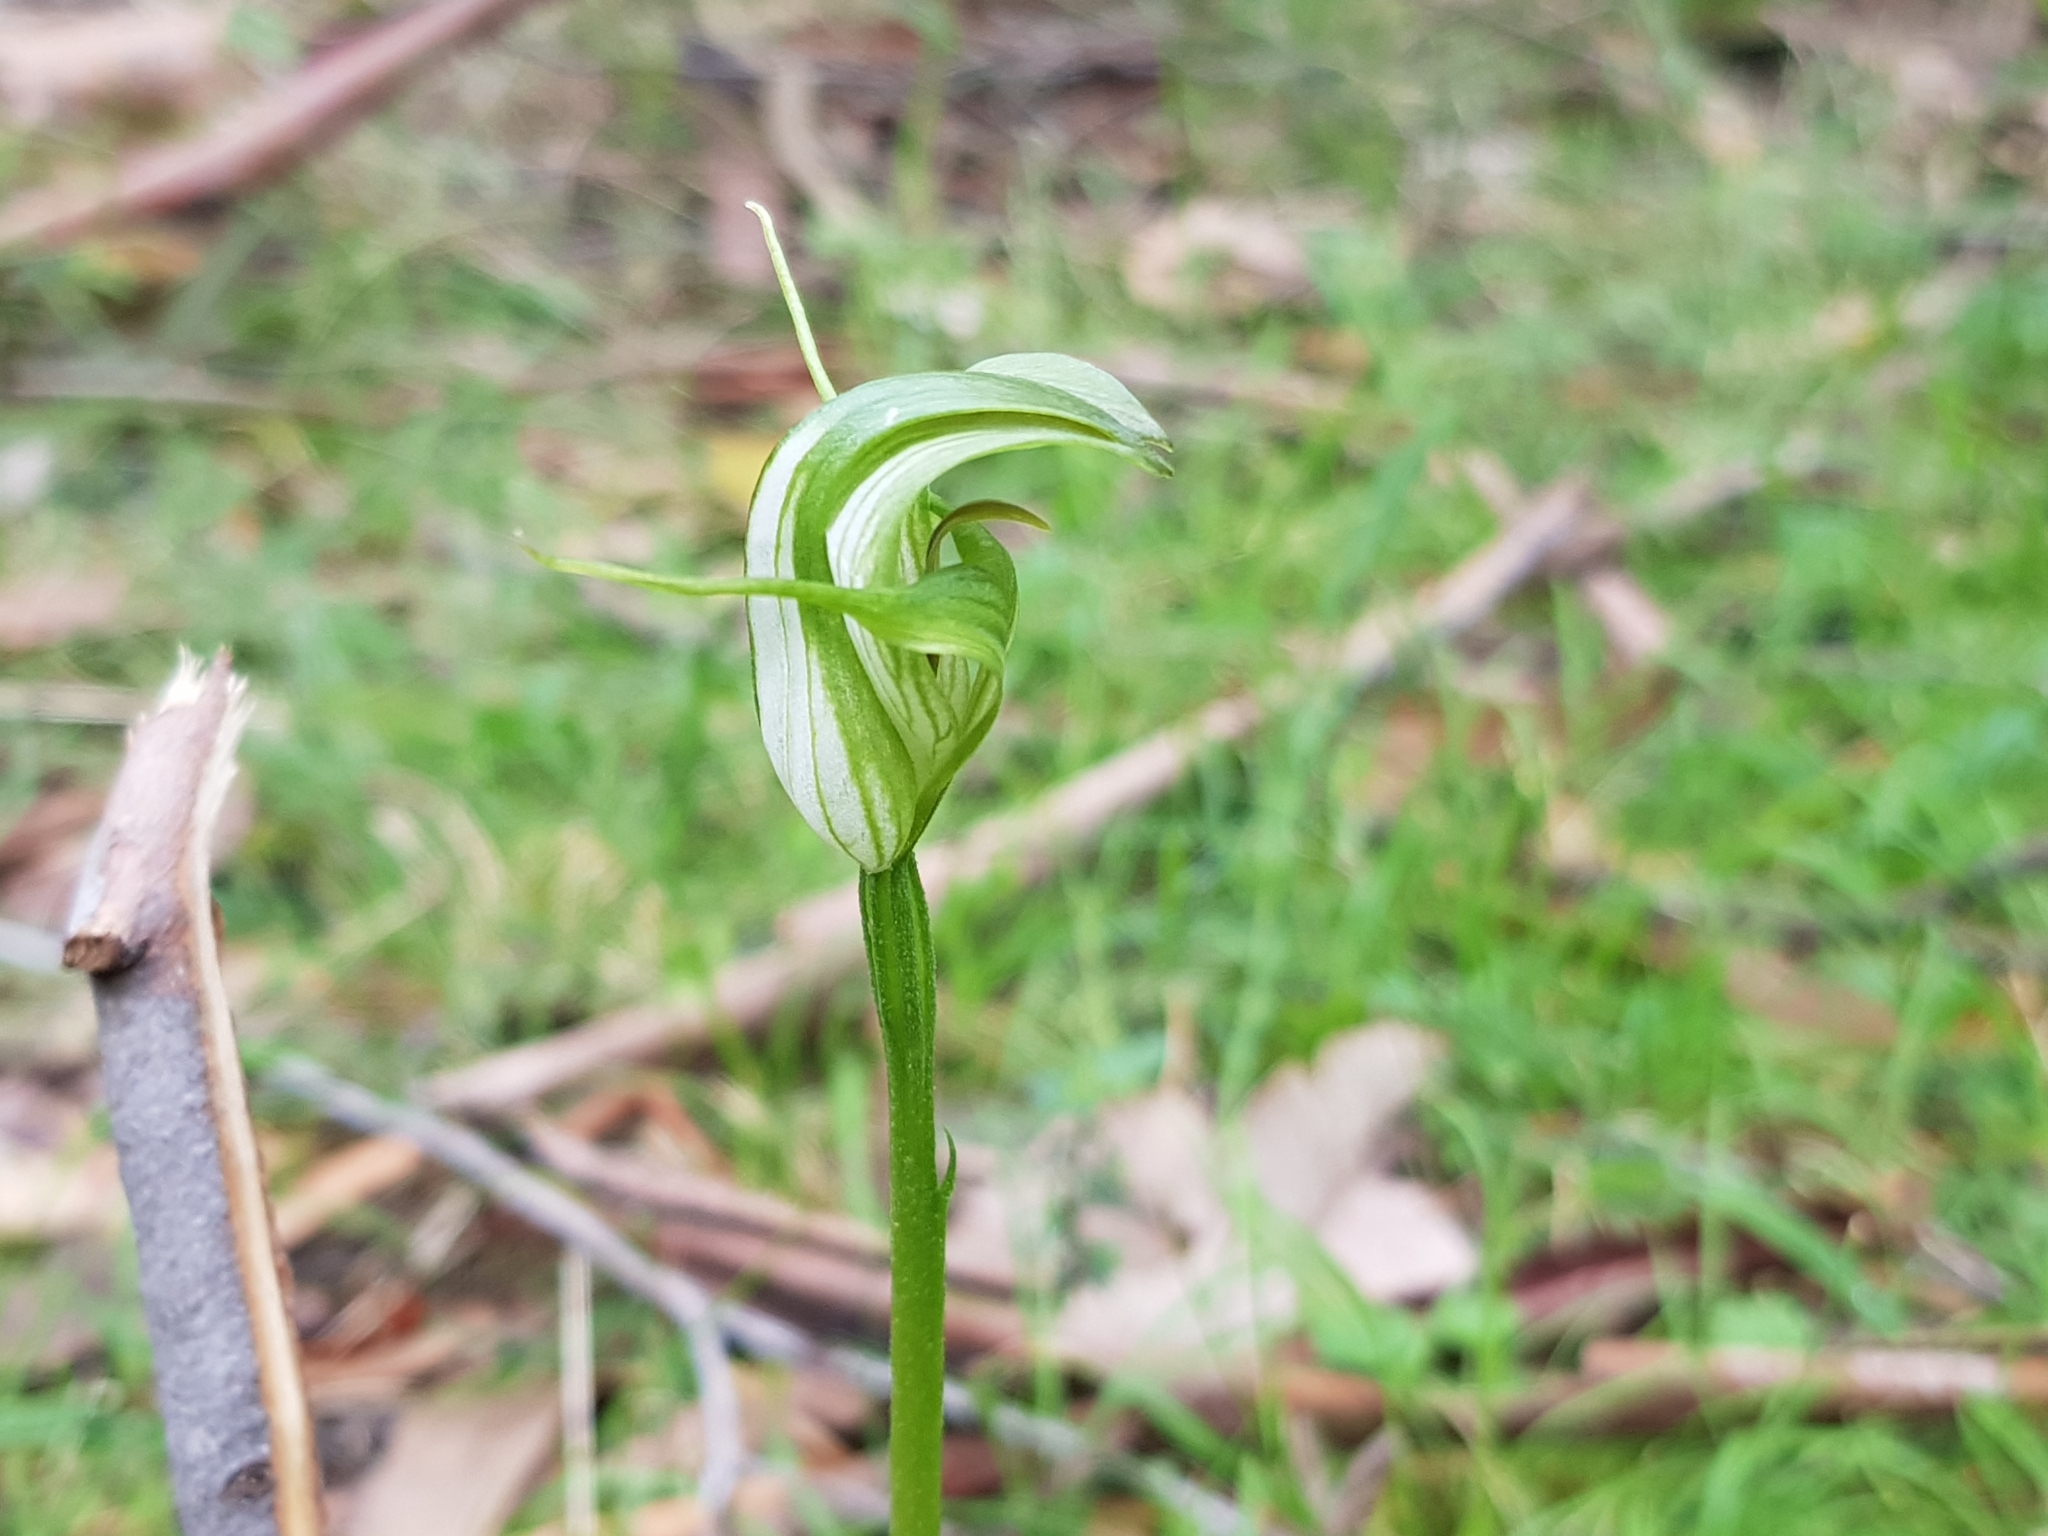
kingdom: Plantae
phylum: Tracheophyta
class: Liliopsida
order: Asparagales
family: Orchidaceae
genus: Pterostylis
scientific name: Pterostylis alpina
